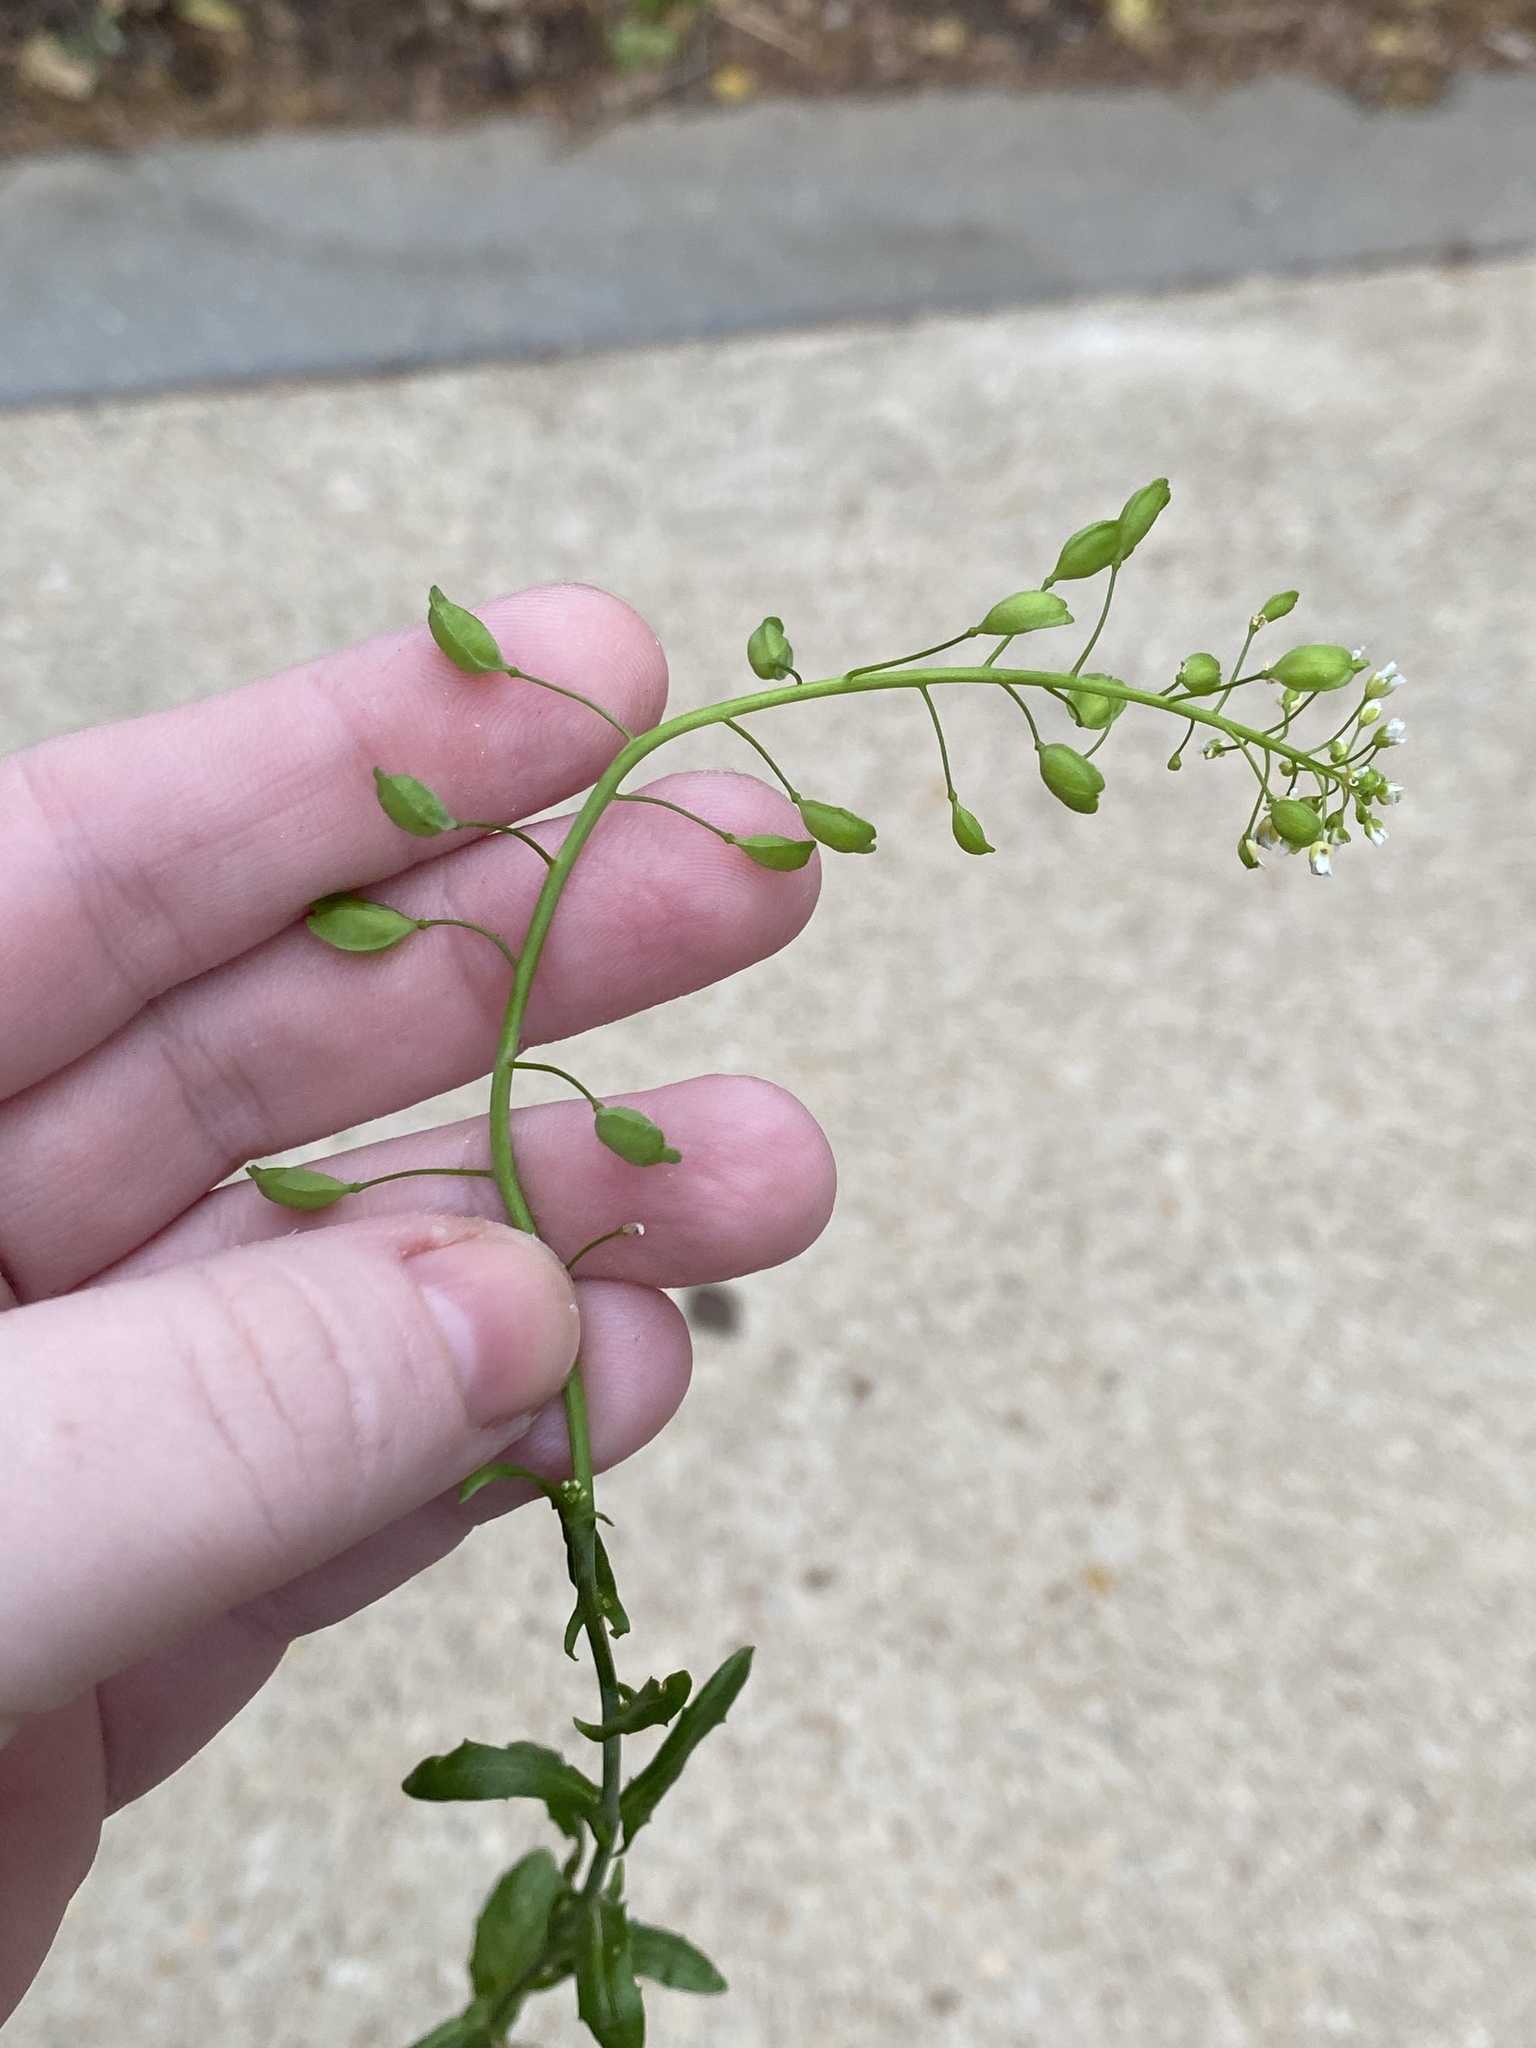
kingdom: Plantae
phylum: Tracheophyta
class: Magnoliopsida
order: Brassicales
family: Brassicaceae
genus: Mummenhoffia
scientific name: Mummenhoffia alliacea
